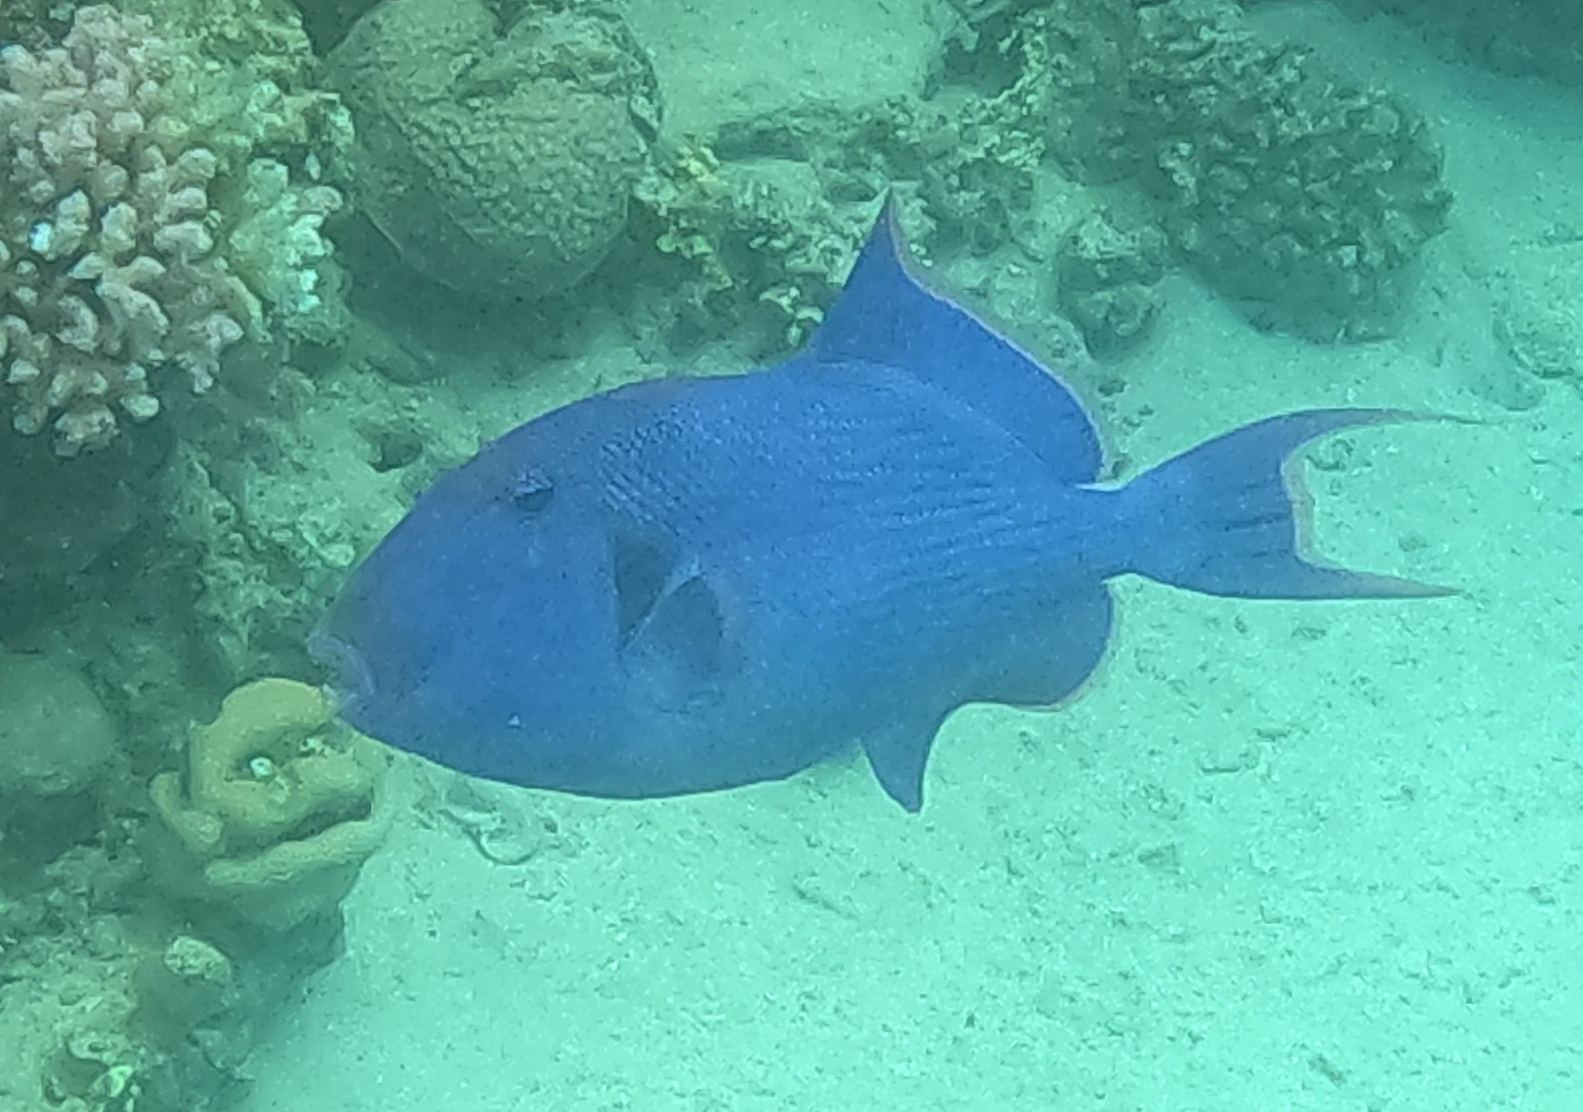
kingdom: Animalia
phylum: Chordata
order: Tetraodontiformes
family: Balistidae
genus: Pseudobalistes
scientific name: Pseudobalistes fuscus
